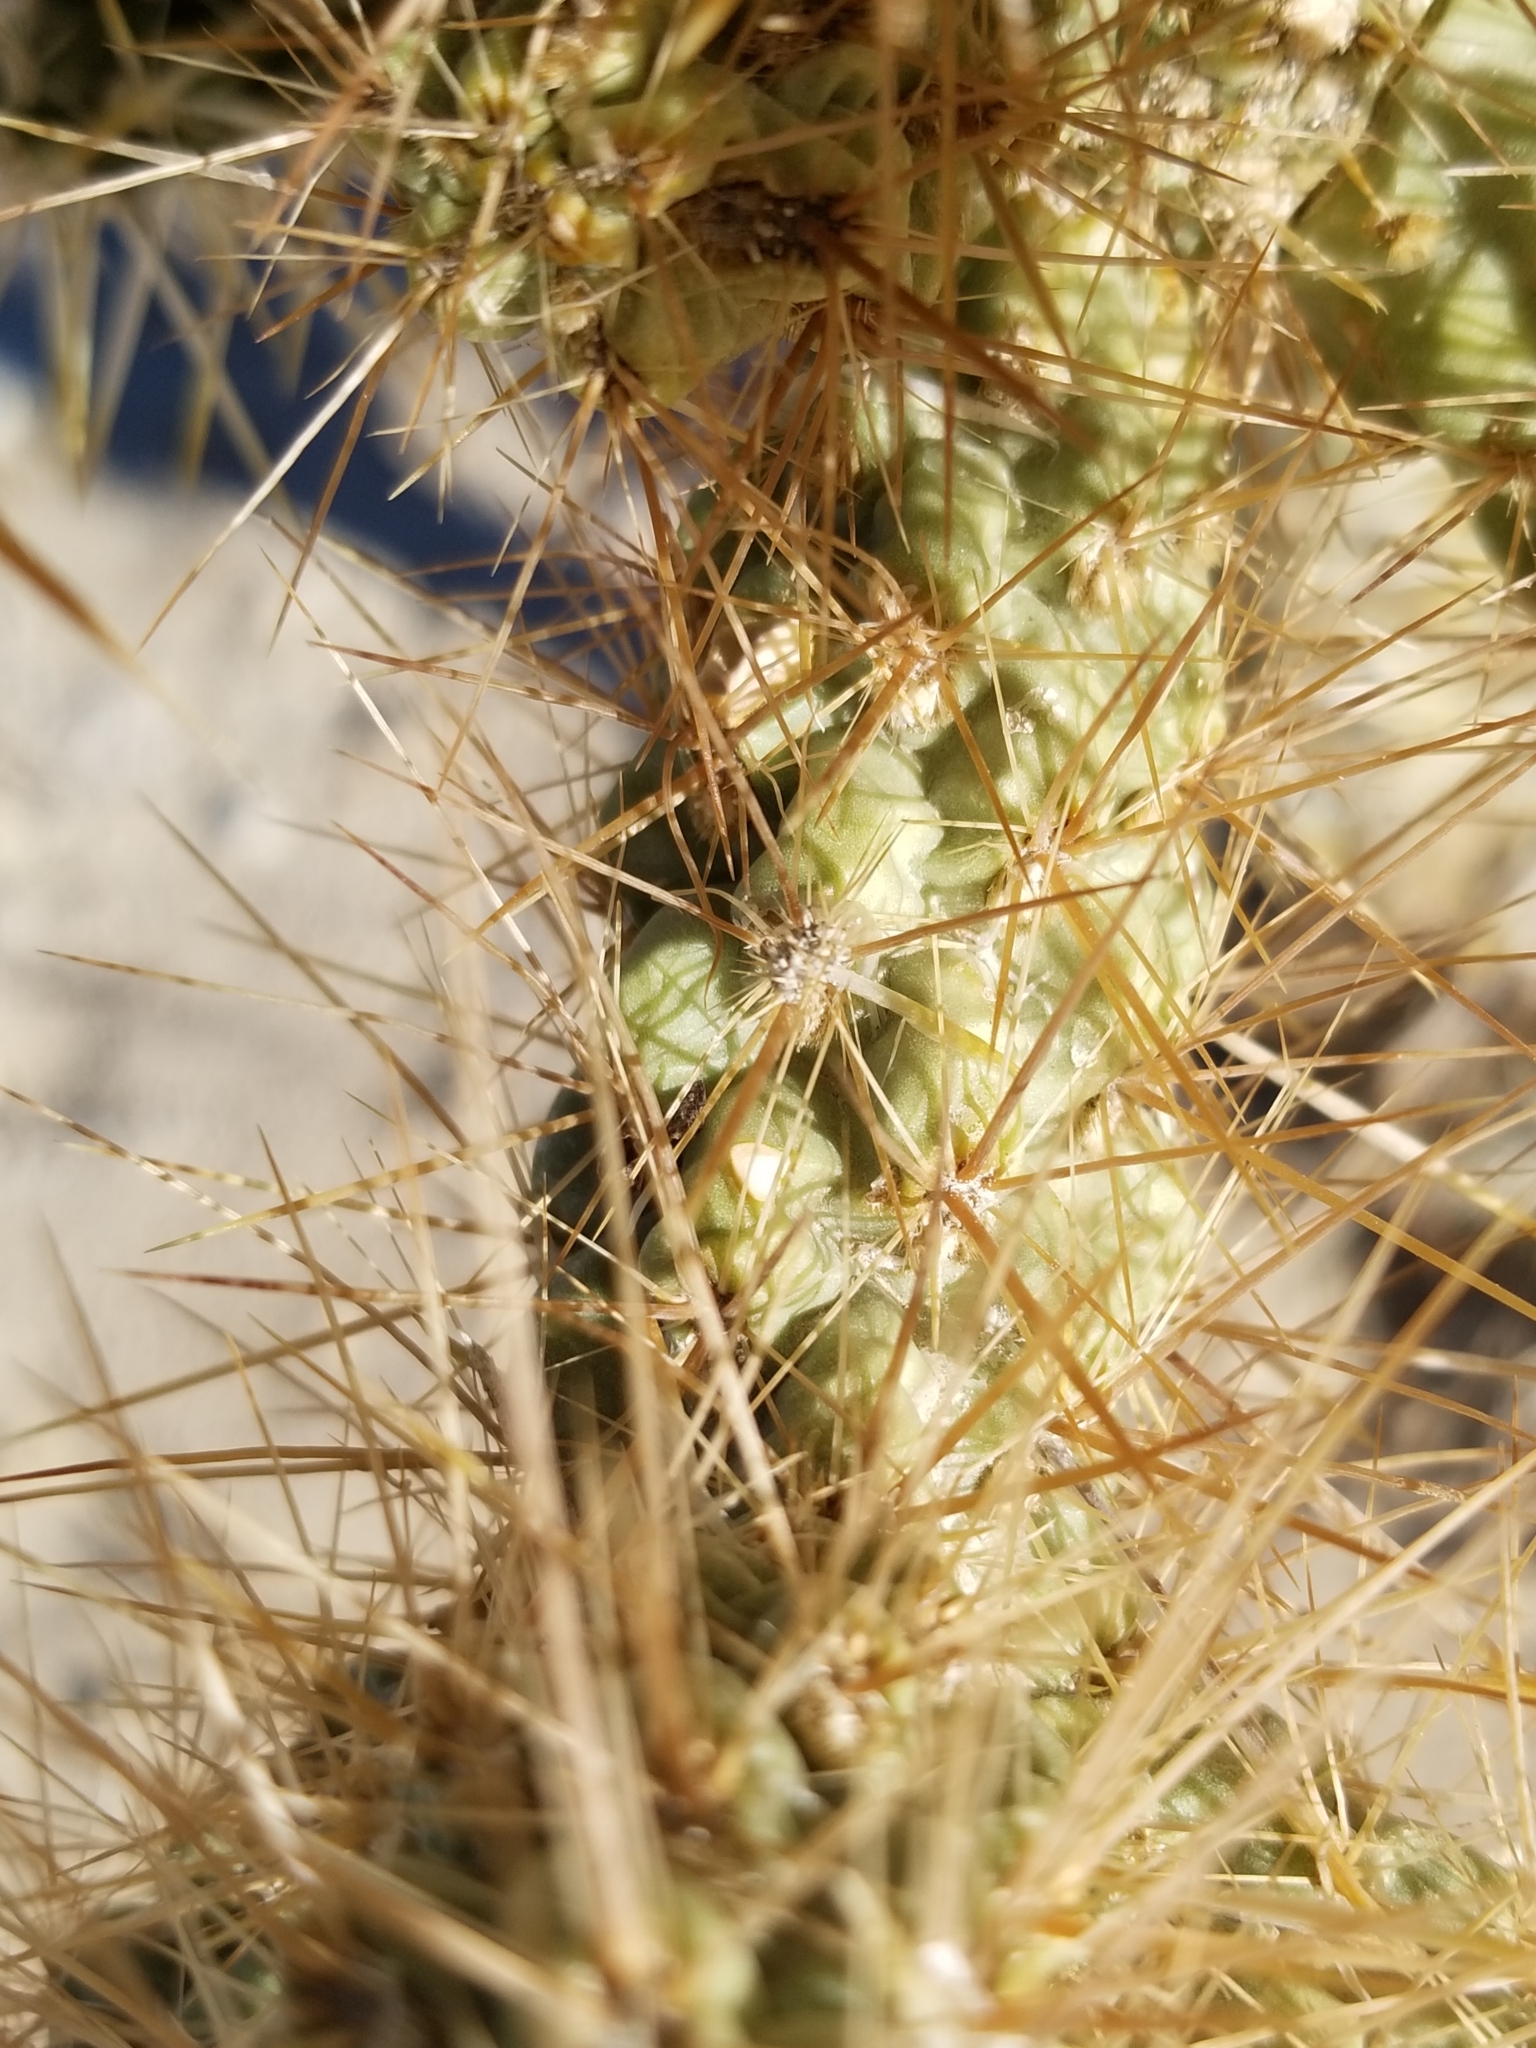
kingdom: Plantae
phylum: Tracheophyta
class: Magnoliopsida
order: Caryophyllales
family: Cactaceae
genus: Cylindropuntia
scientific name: Cylindropuntia echinocarpa
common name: Ground cholla
